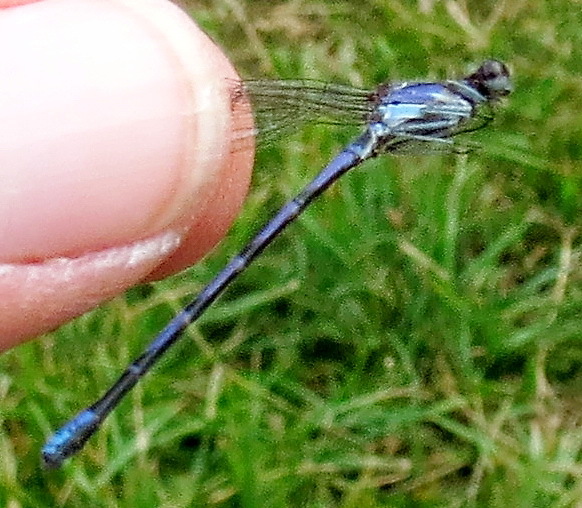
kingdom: Animalia
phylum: Arthropoda
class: Insecta
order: Odonata
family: Coenagrionidae
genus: Argia
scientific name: Argia fumipennis
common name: Variable dancer
